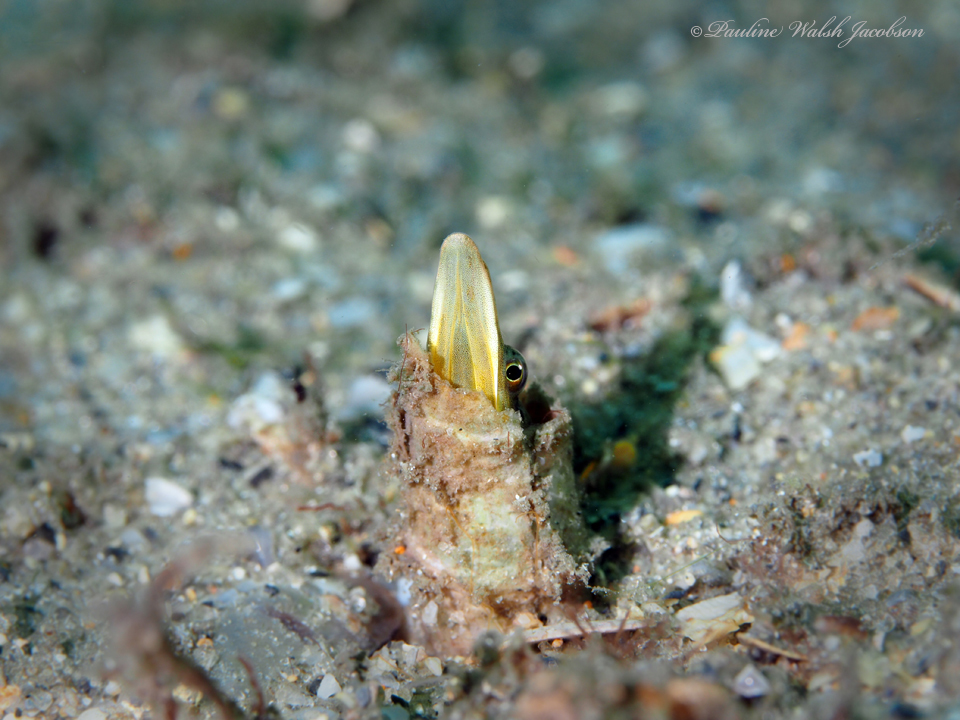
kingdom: Animalia
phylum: Chordata
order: Perciformes
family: Chaenopsidae
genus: Chaenopsis
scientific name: Chaenopsis ocellata
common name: Bluethroat pikeblenny
